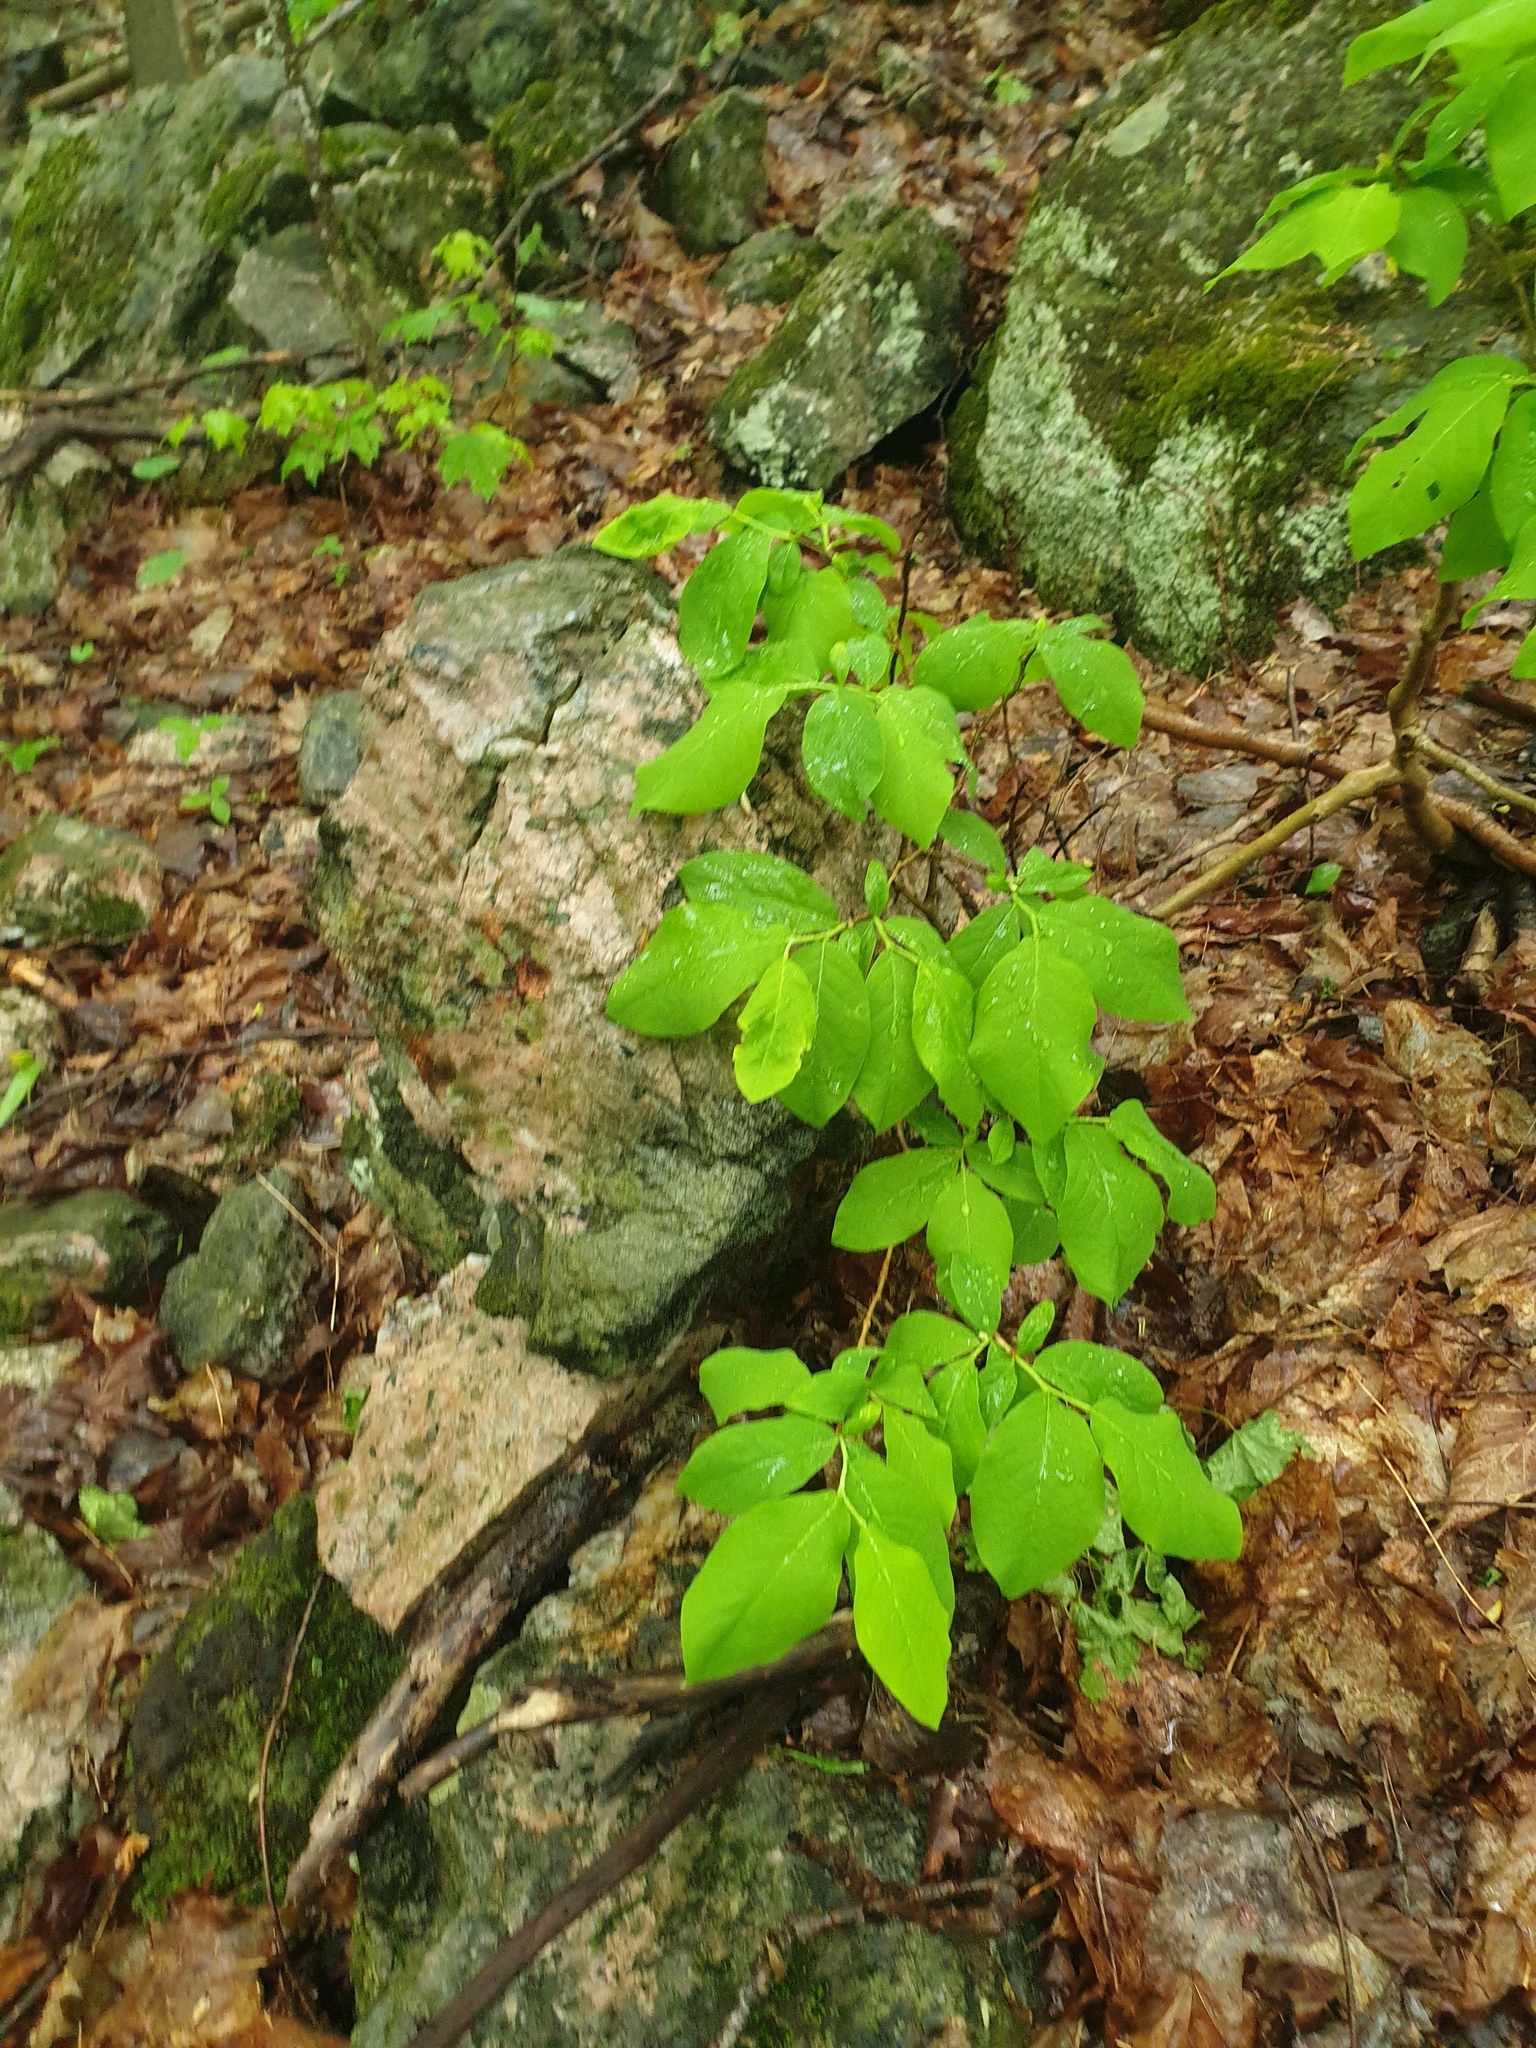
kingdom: Plantae
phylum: Tracheophyta
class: Magnoliopsida
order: Malvales
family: Thymelaeaceae
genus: Dirca
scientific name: Dirca palustris
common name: Leatherwood
